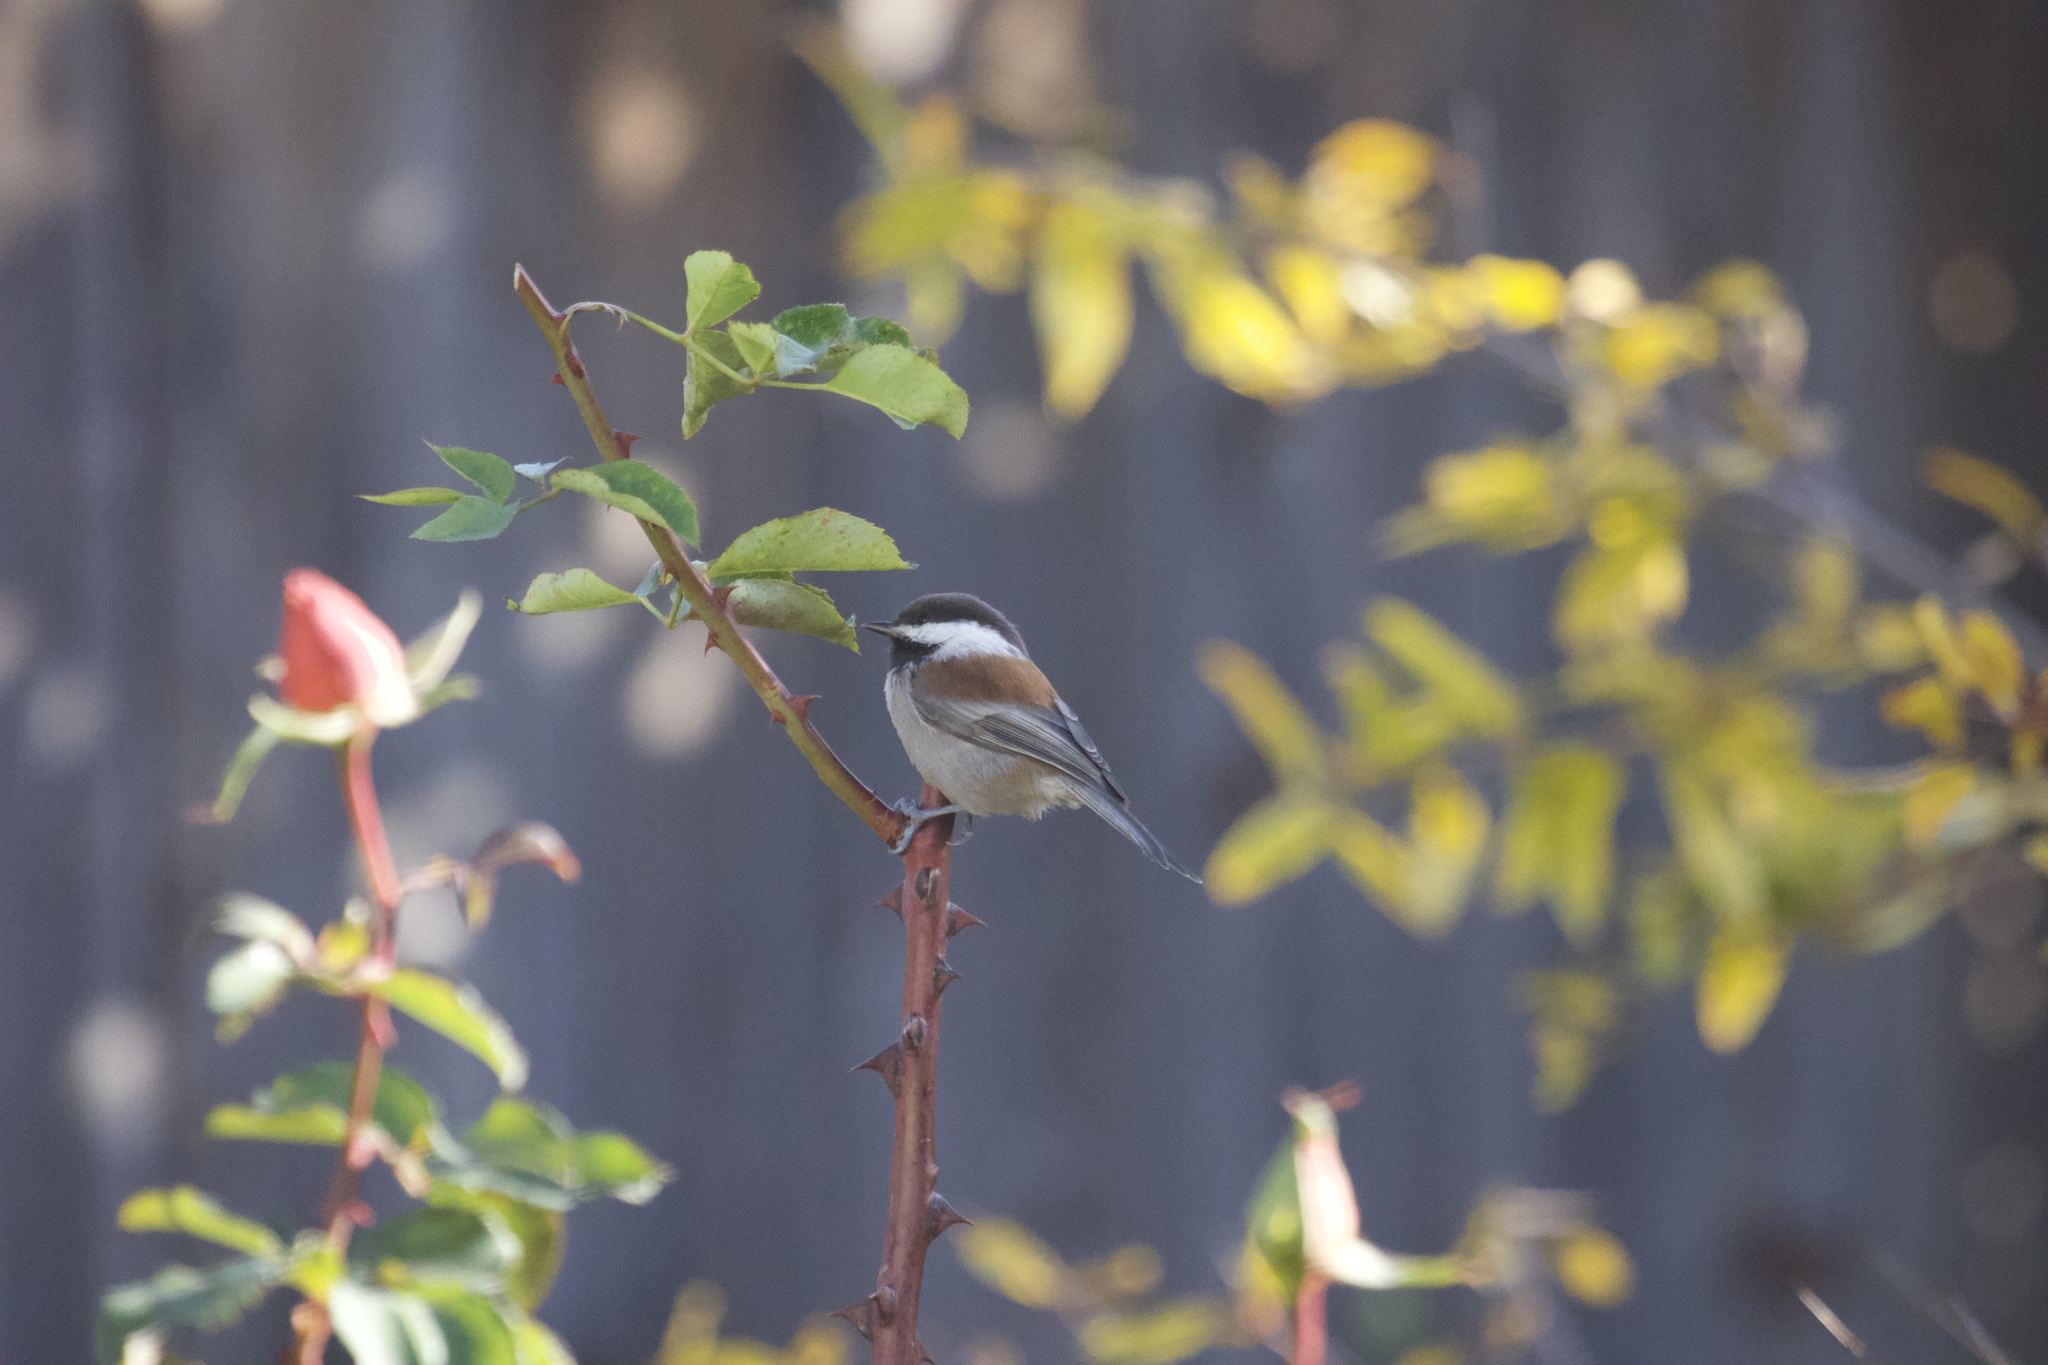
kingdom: Animalia
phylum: Chordata
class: Aves
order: Passeriformes
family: Paridae
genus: Poecile
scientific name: Poecile rufescens
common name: Chestnut-backed chickadee
